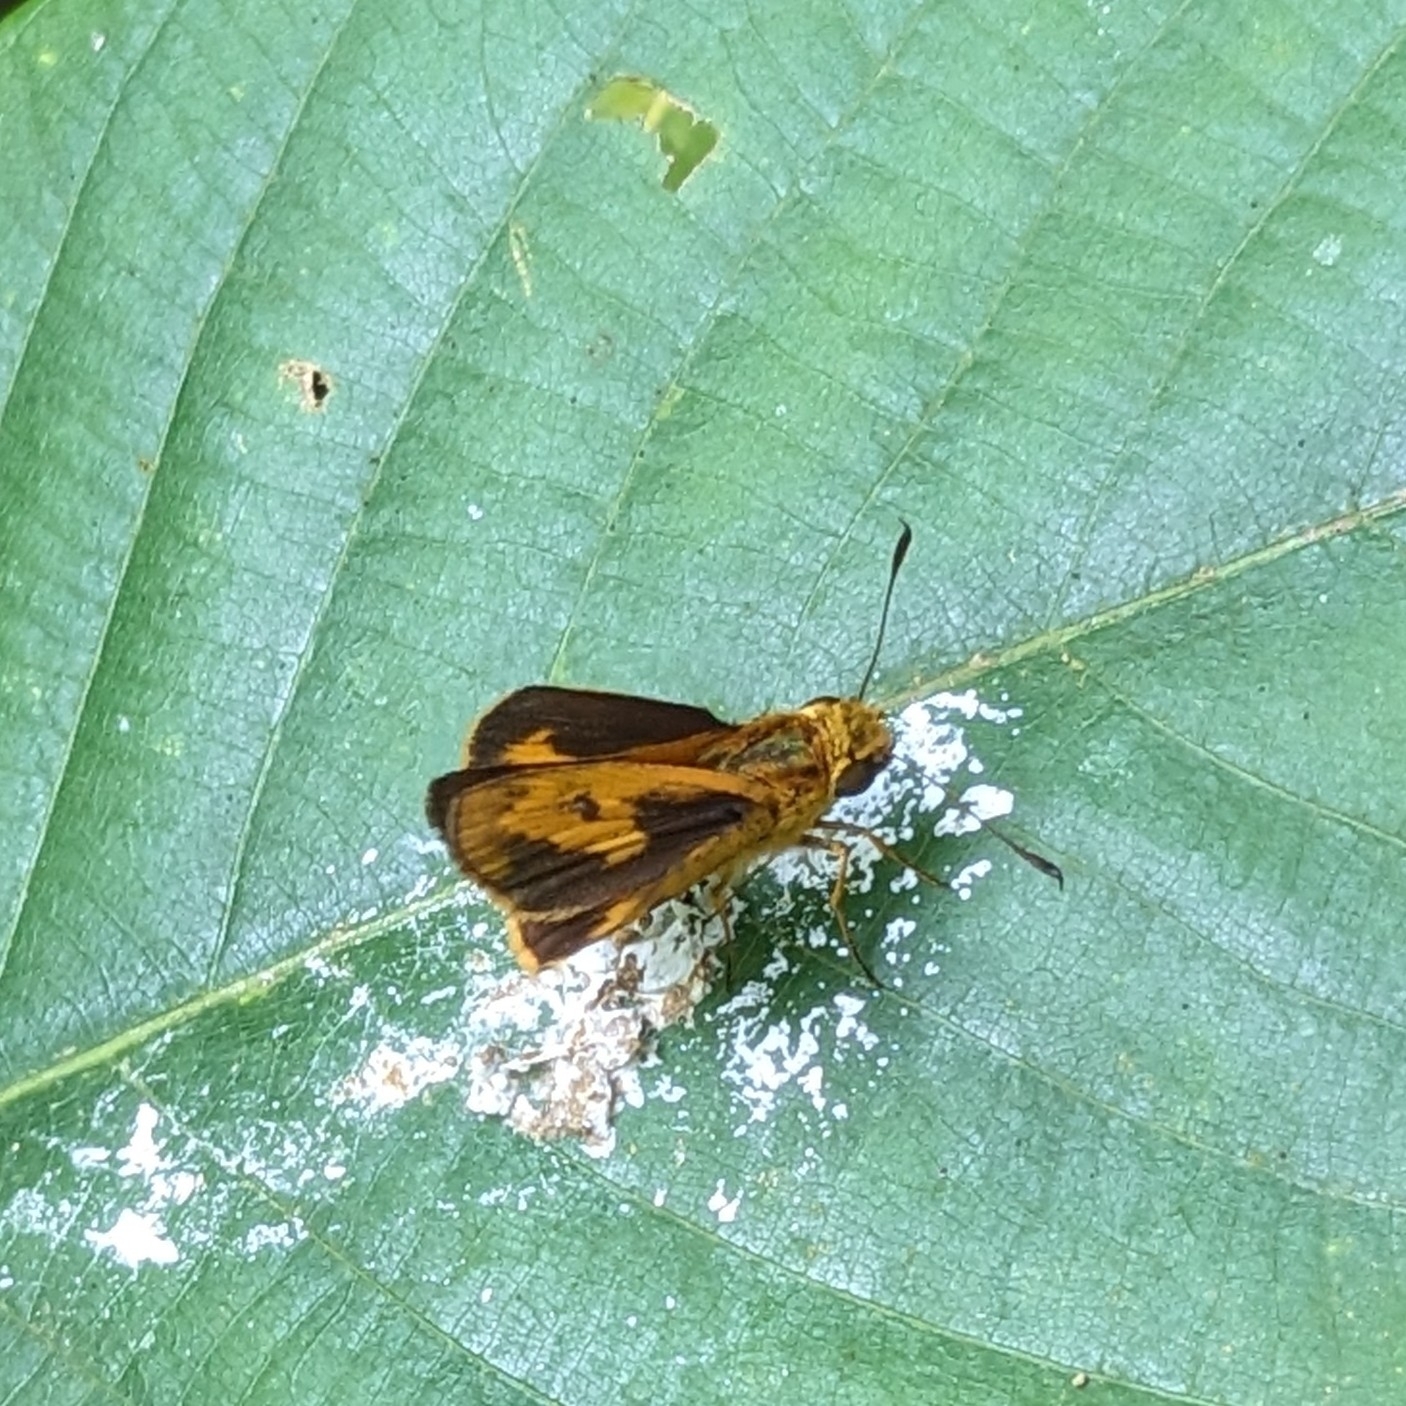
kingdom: Animalia
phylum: Arthropoda
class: Insecta
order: Lepidoptera
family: Hesperiidae
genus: Oriens
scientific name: Oriens goloides
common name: Smaller dartlet
